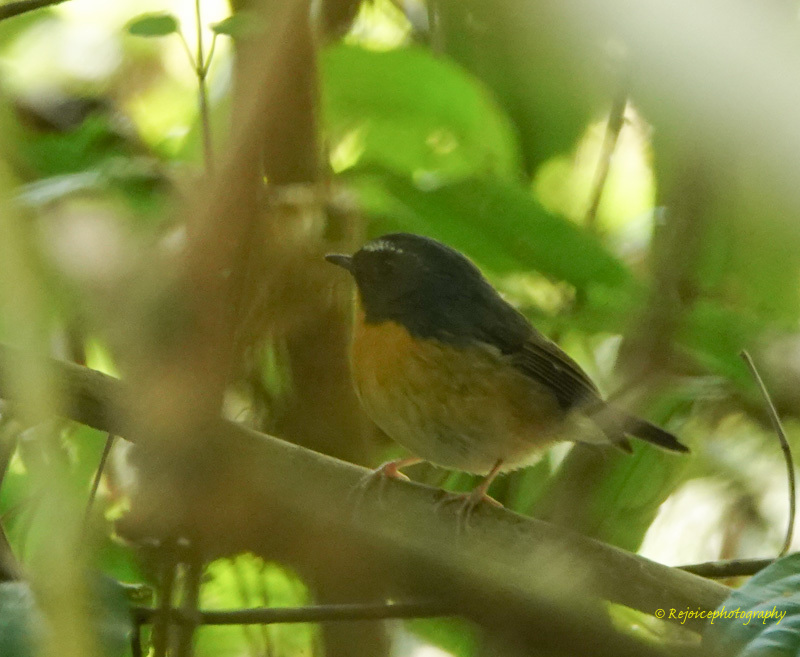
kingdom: Animalia
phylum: Chordata
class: Aves
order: Passeriformes
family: Muscicapidae
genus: Ficedula
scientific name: Ficedula hyperythra
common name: Snowy-browed flycatcher
